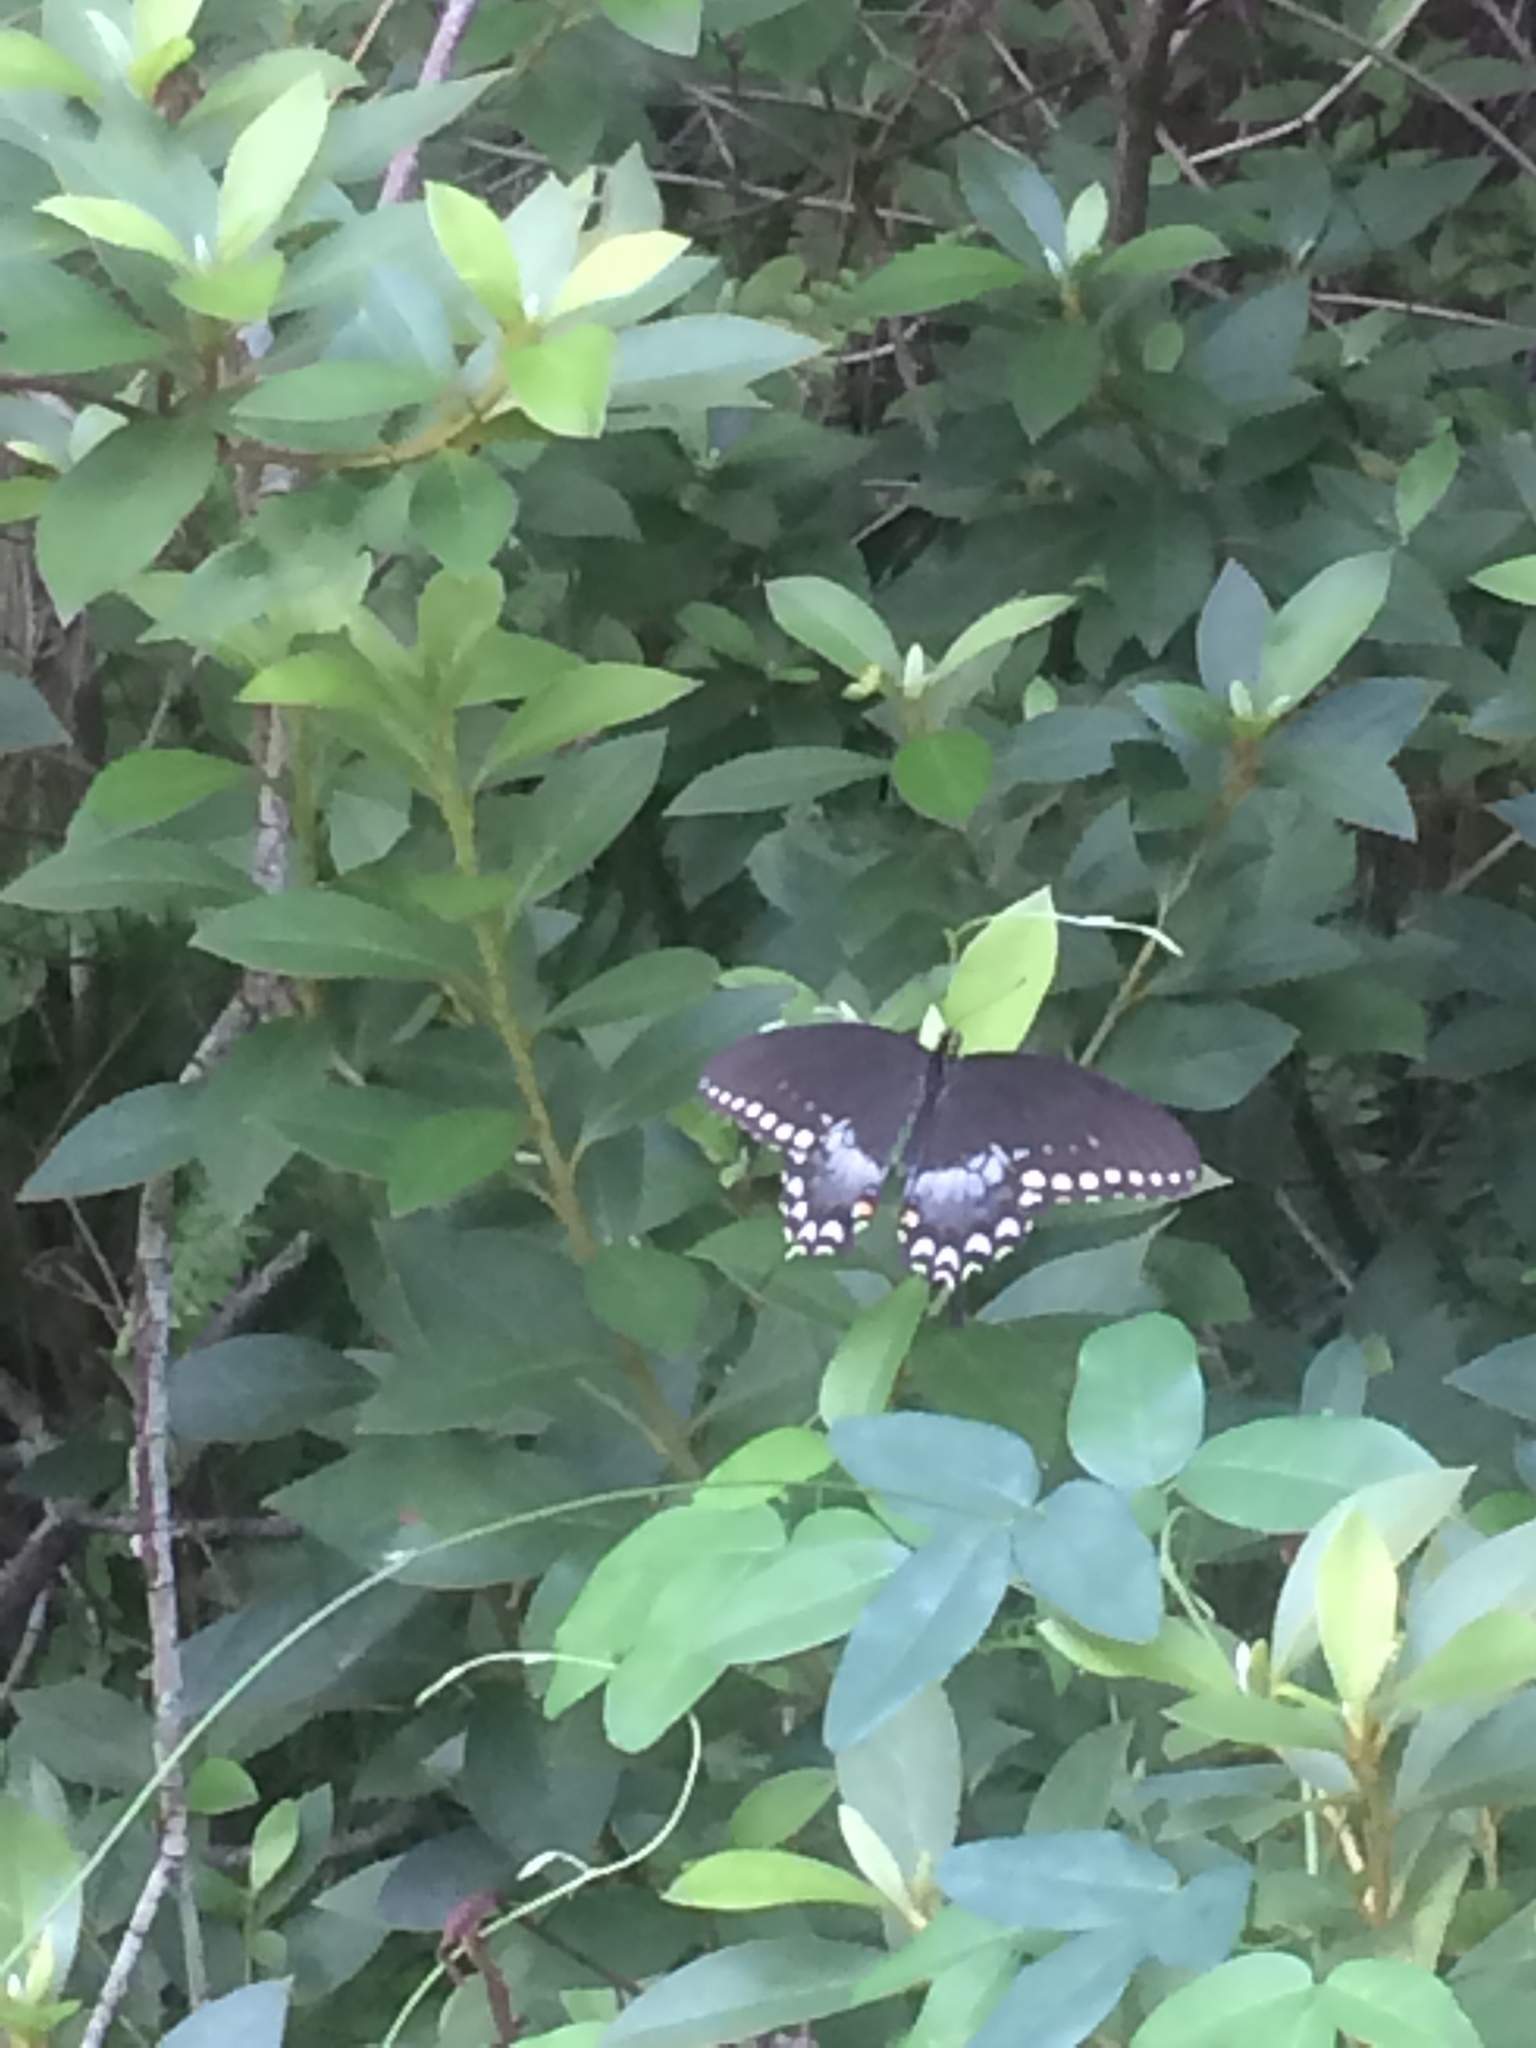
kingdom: Animalia
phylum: Arthropoda
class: Insecta
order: Lepidoptera
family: Papilionidae
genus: Papilio
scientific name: Papilio troilus
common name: Spicebush swallowtail
